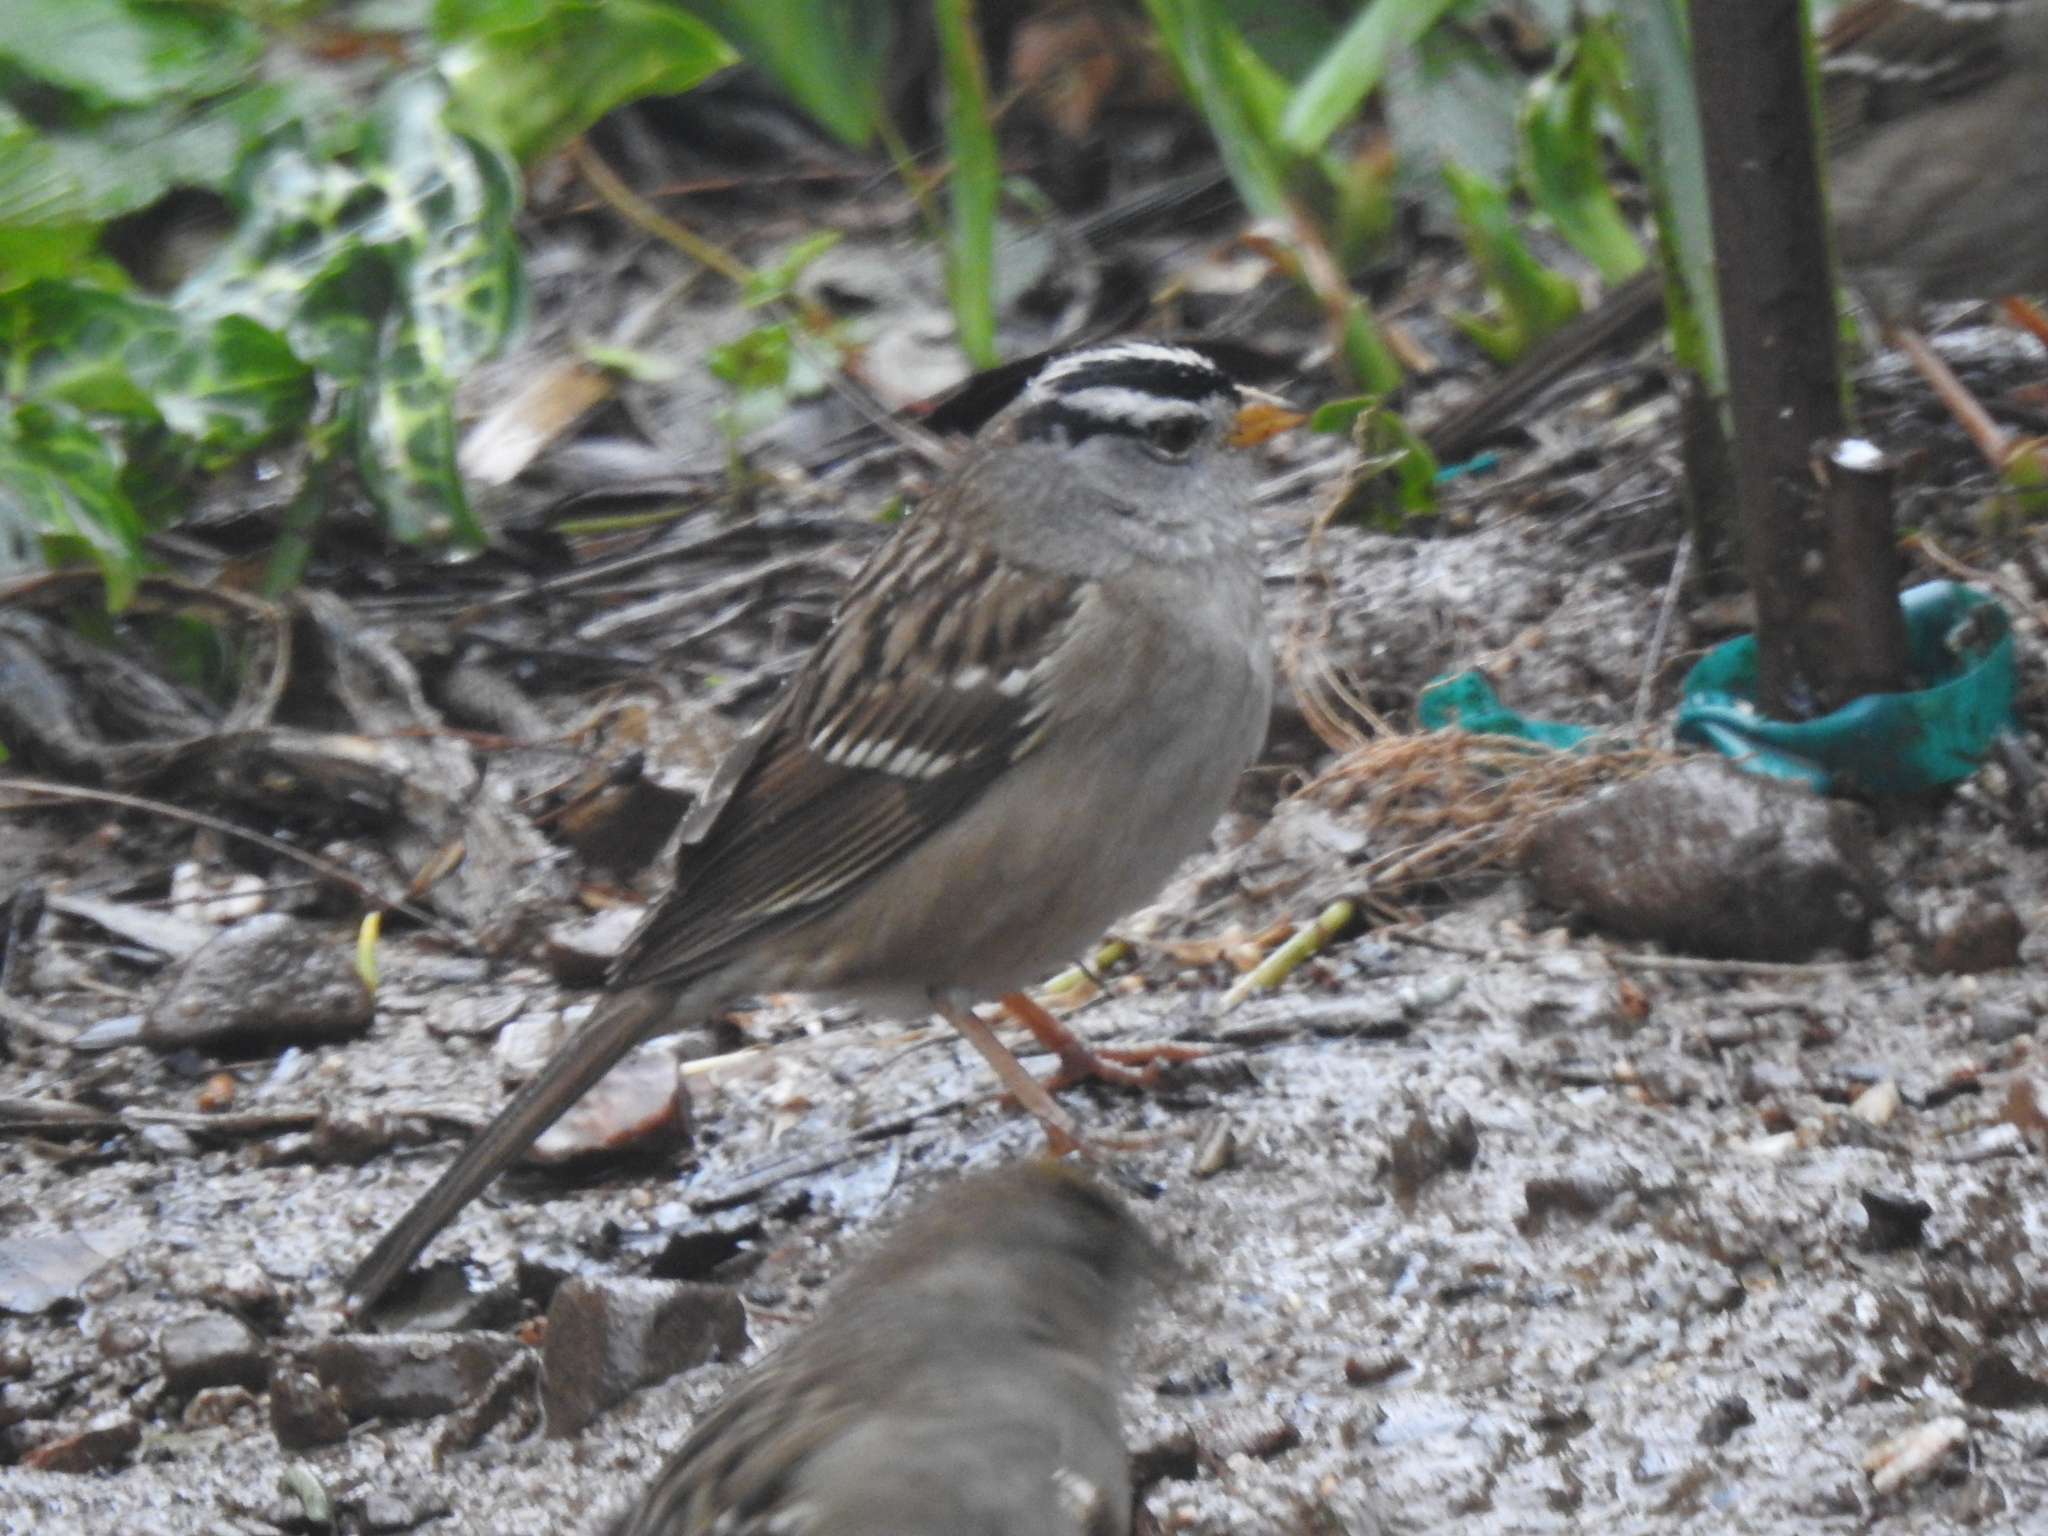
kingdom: Animalia
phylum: Chordata
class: Aves
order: Passeriformes
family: Passerellidae
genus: Zonotrichia
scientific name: Zonotrichia leucophrys
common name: White-crowned sparrow
